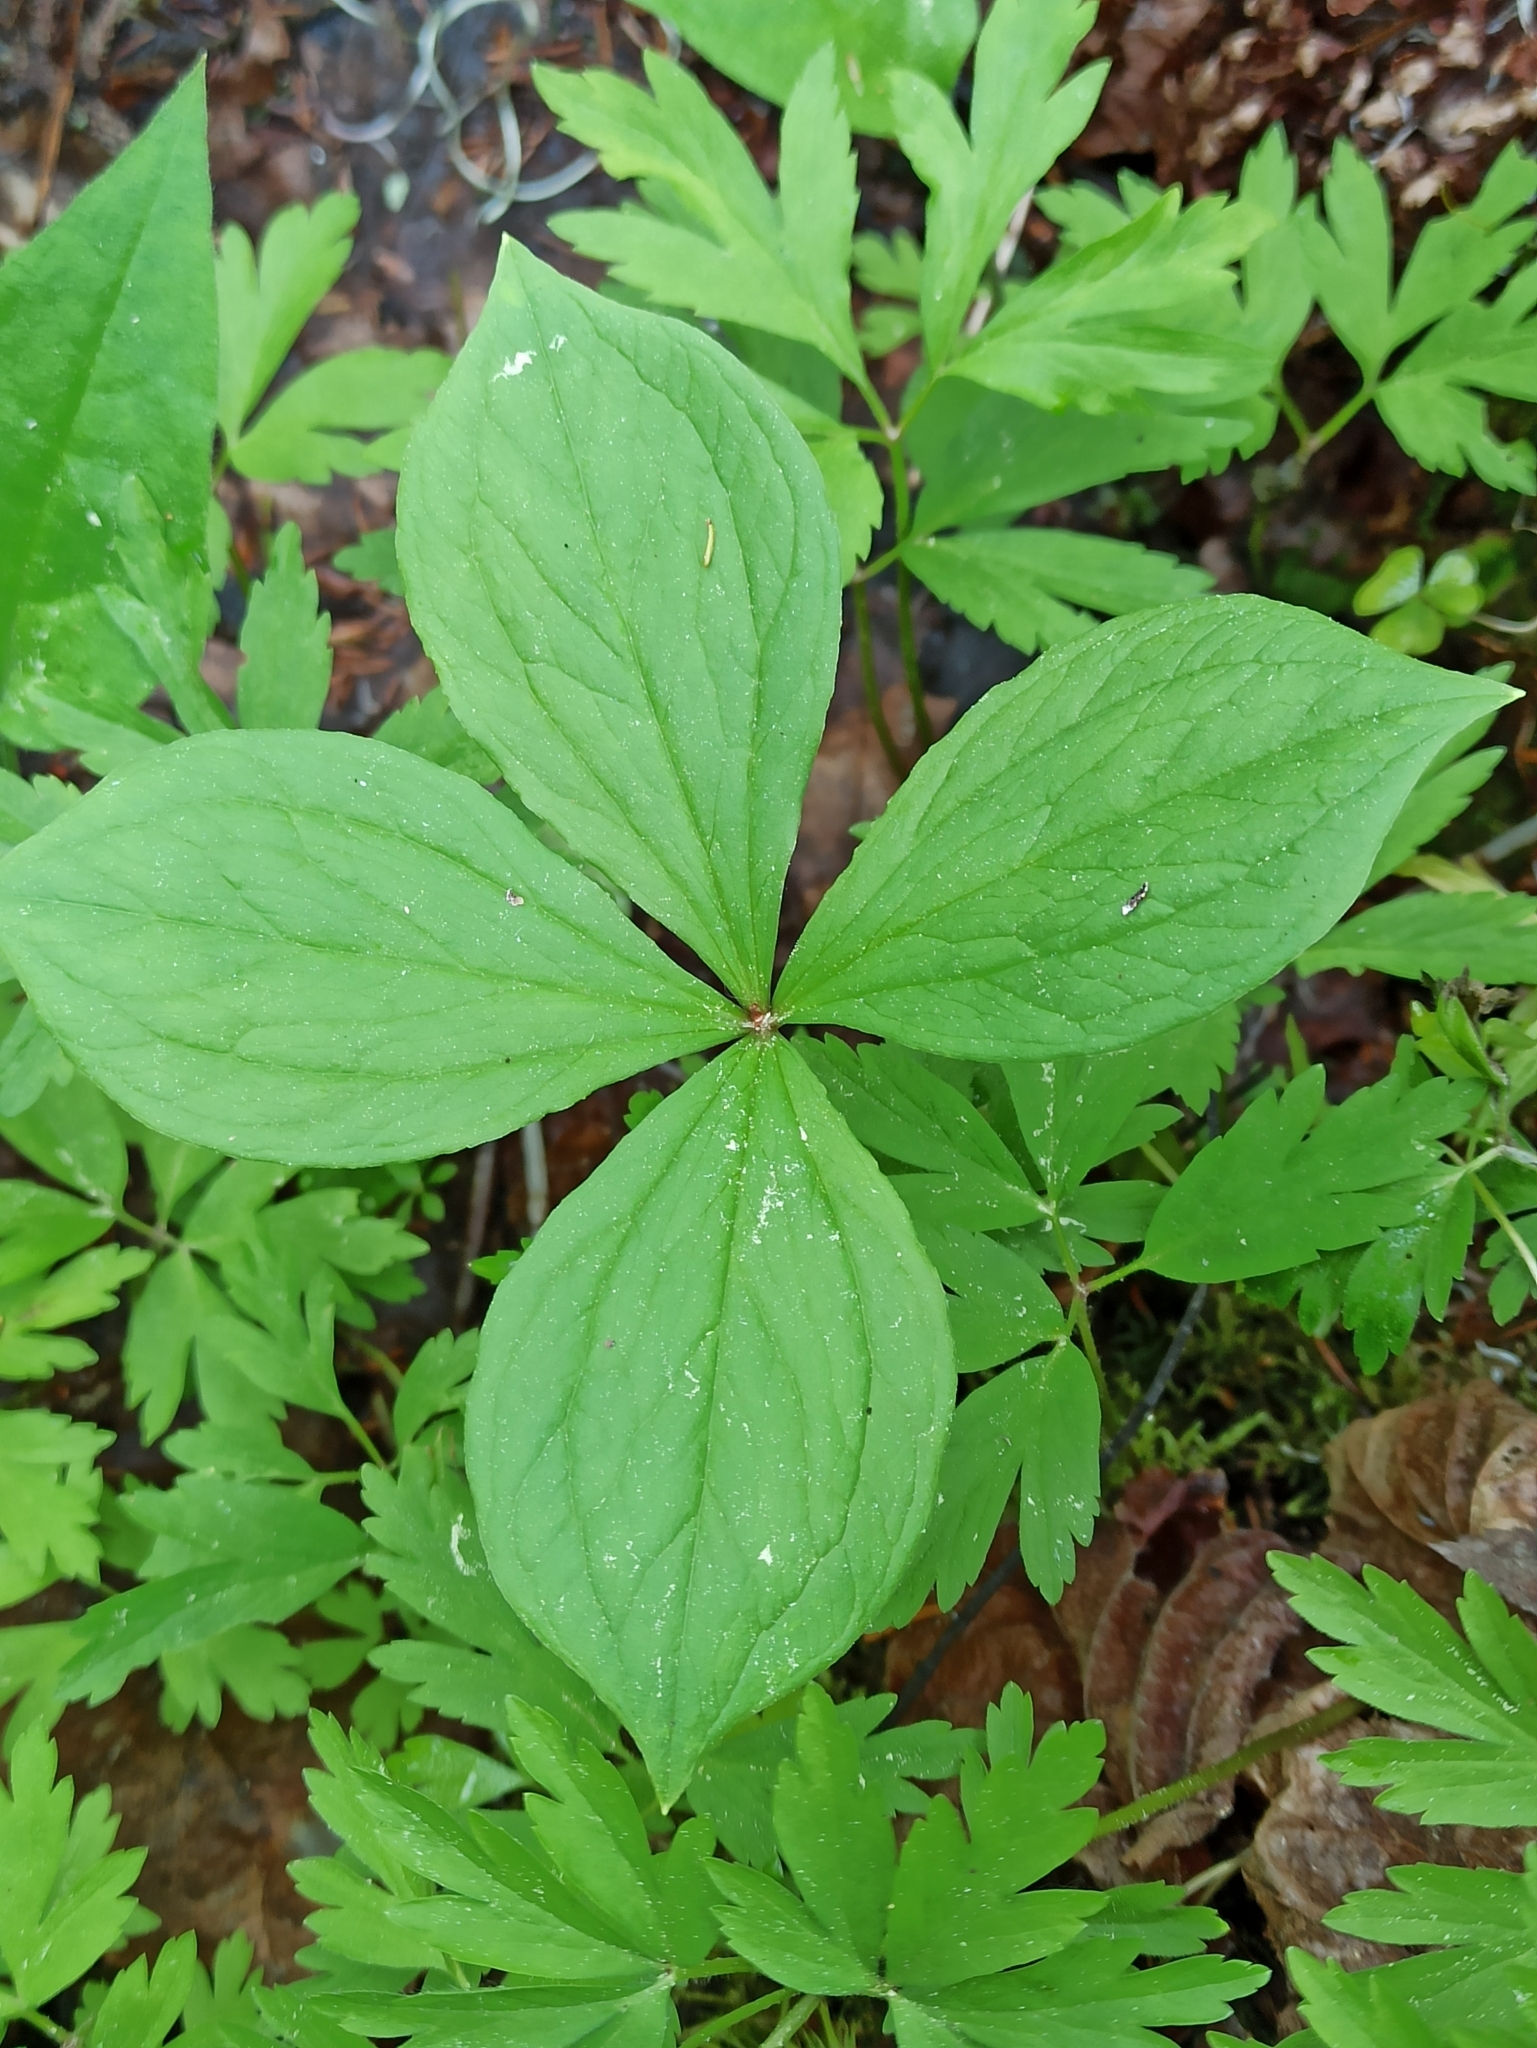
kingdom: Plantae
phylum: Tracheophyta
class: Liliopsida
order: Liliales
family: Melanthiaceae
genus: Paris
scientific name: Paris quadrifolia
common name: Herb-paris
